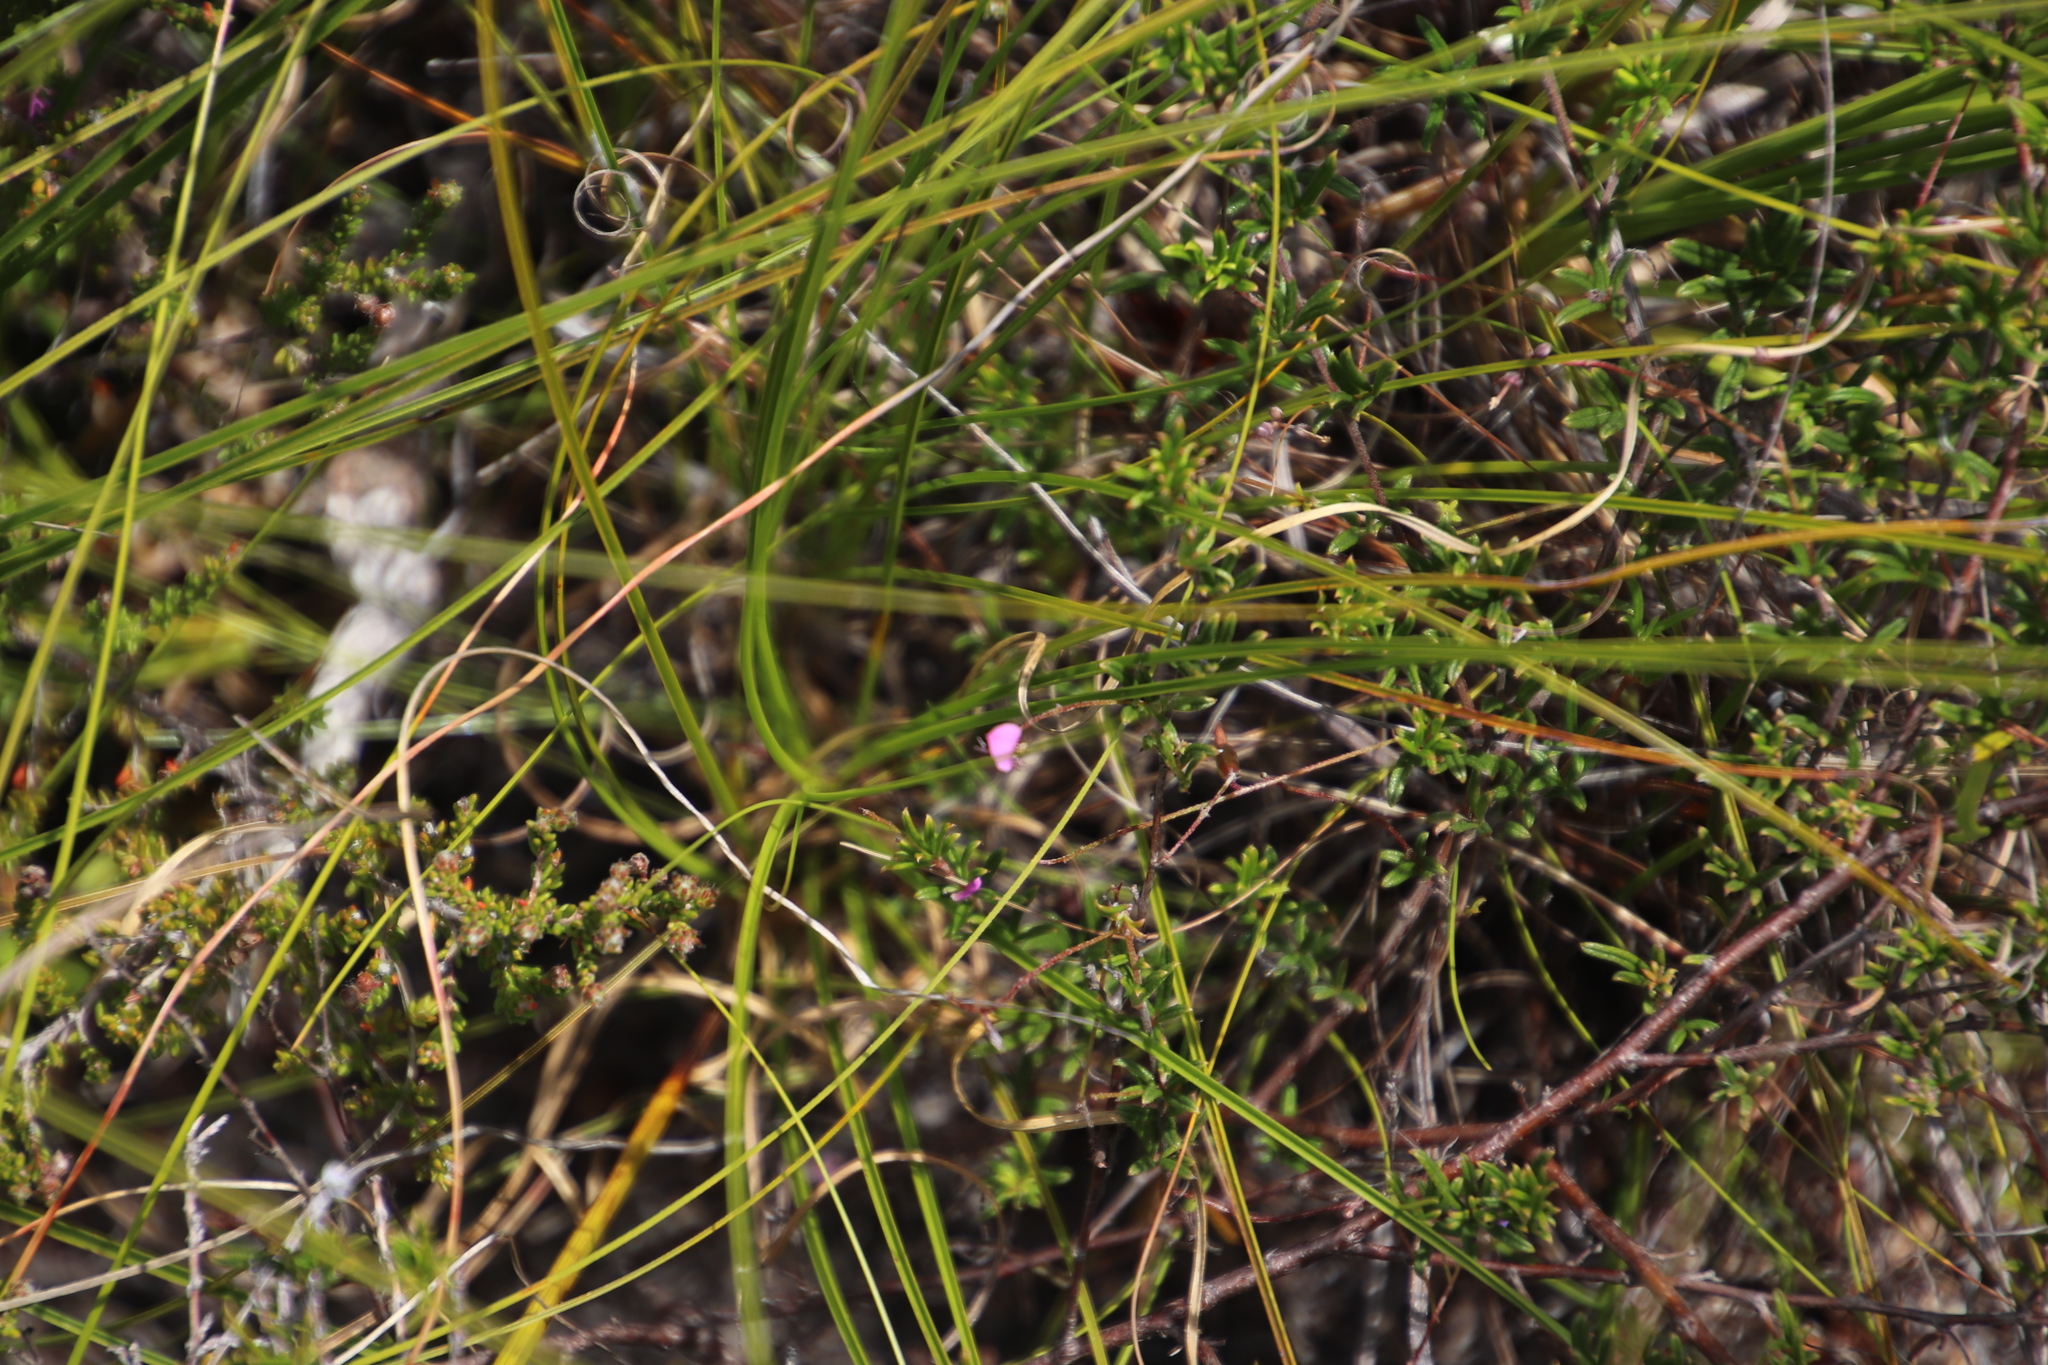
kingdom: Plantae
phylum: Tracheophyta
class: Magnoliopsida
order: Fabales
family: Fabaceae
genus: Indigofera
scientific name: Indigofera angustifolia
